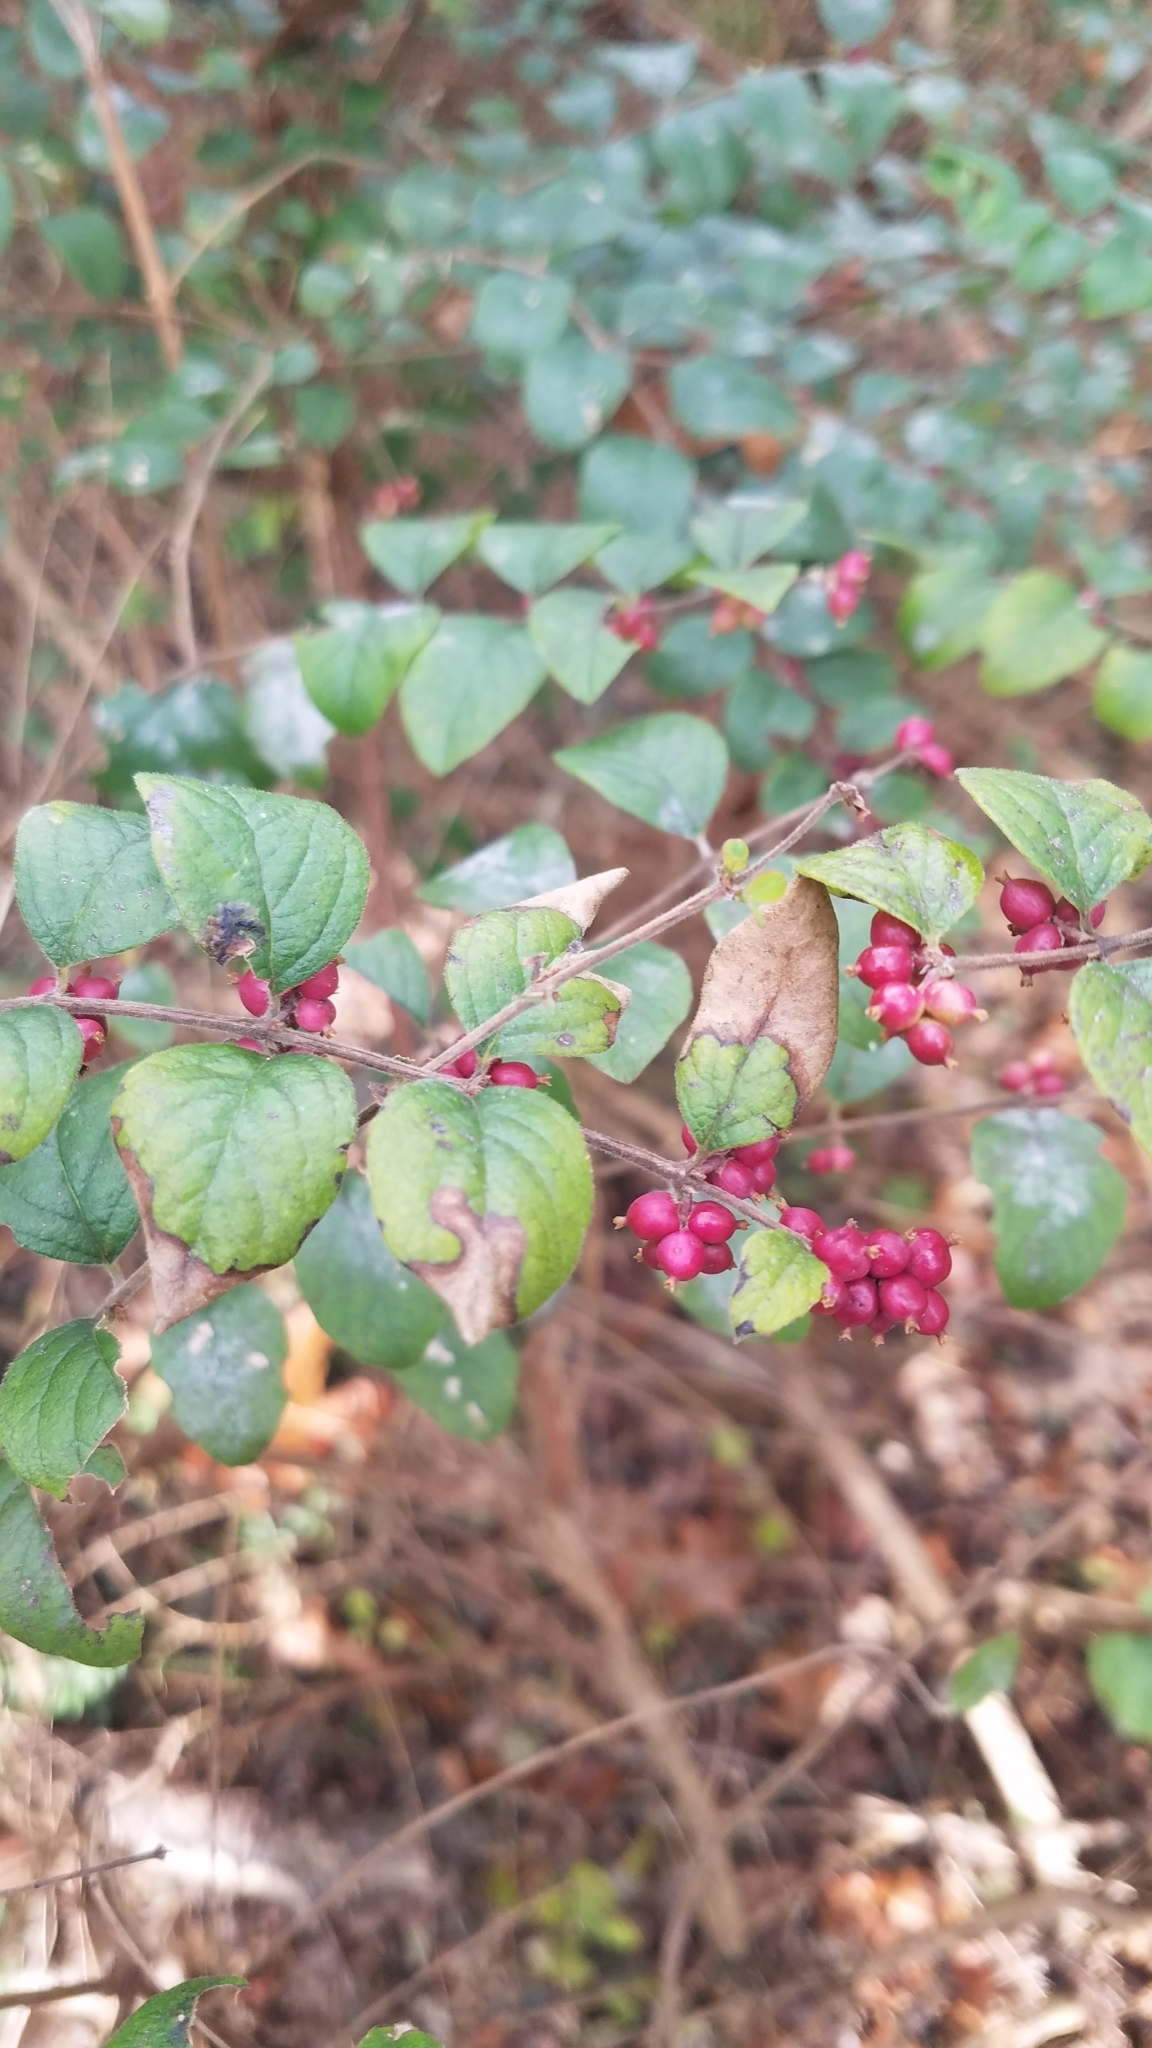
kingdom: Plantae
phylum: Tracheophyta
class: Magnoliopsida
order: Dipsacales
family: Caprifoliaceae
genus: Symphoricarpos
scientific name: Symphoricarpos orbiculatus
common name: Coralberry
